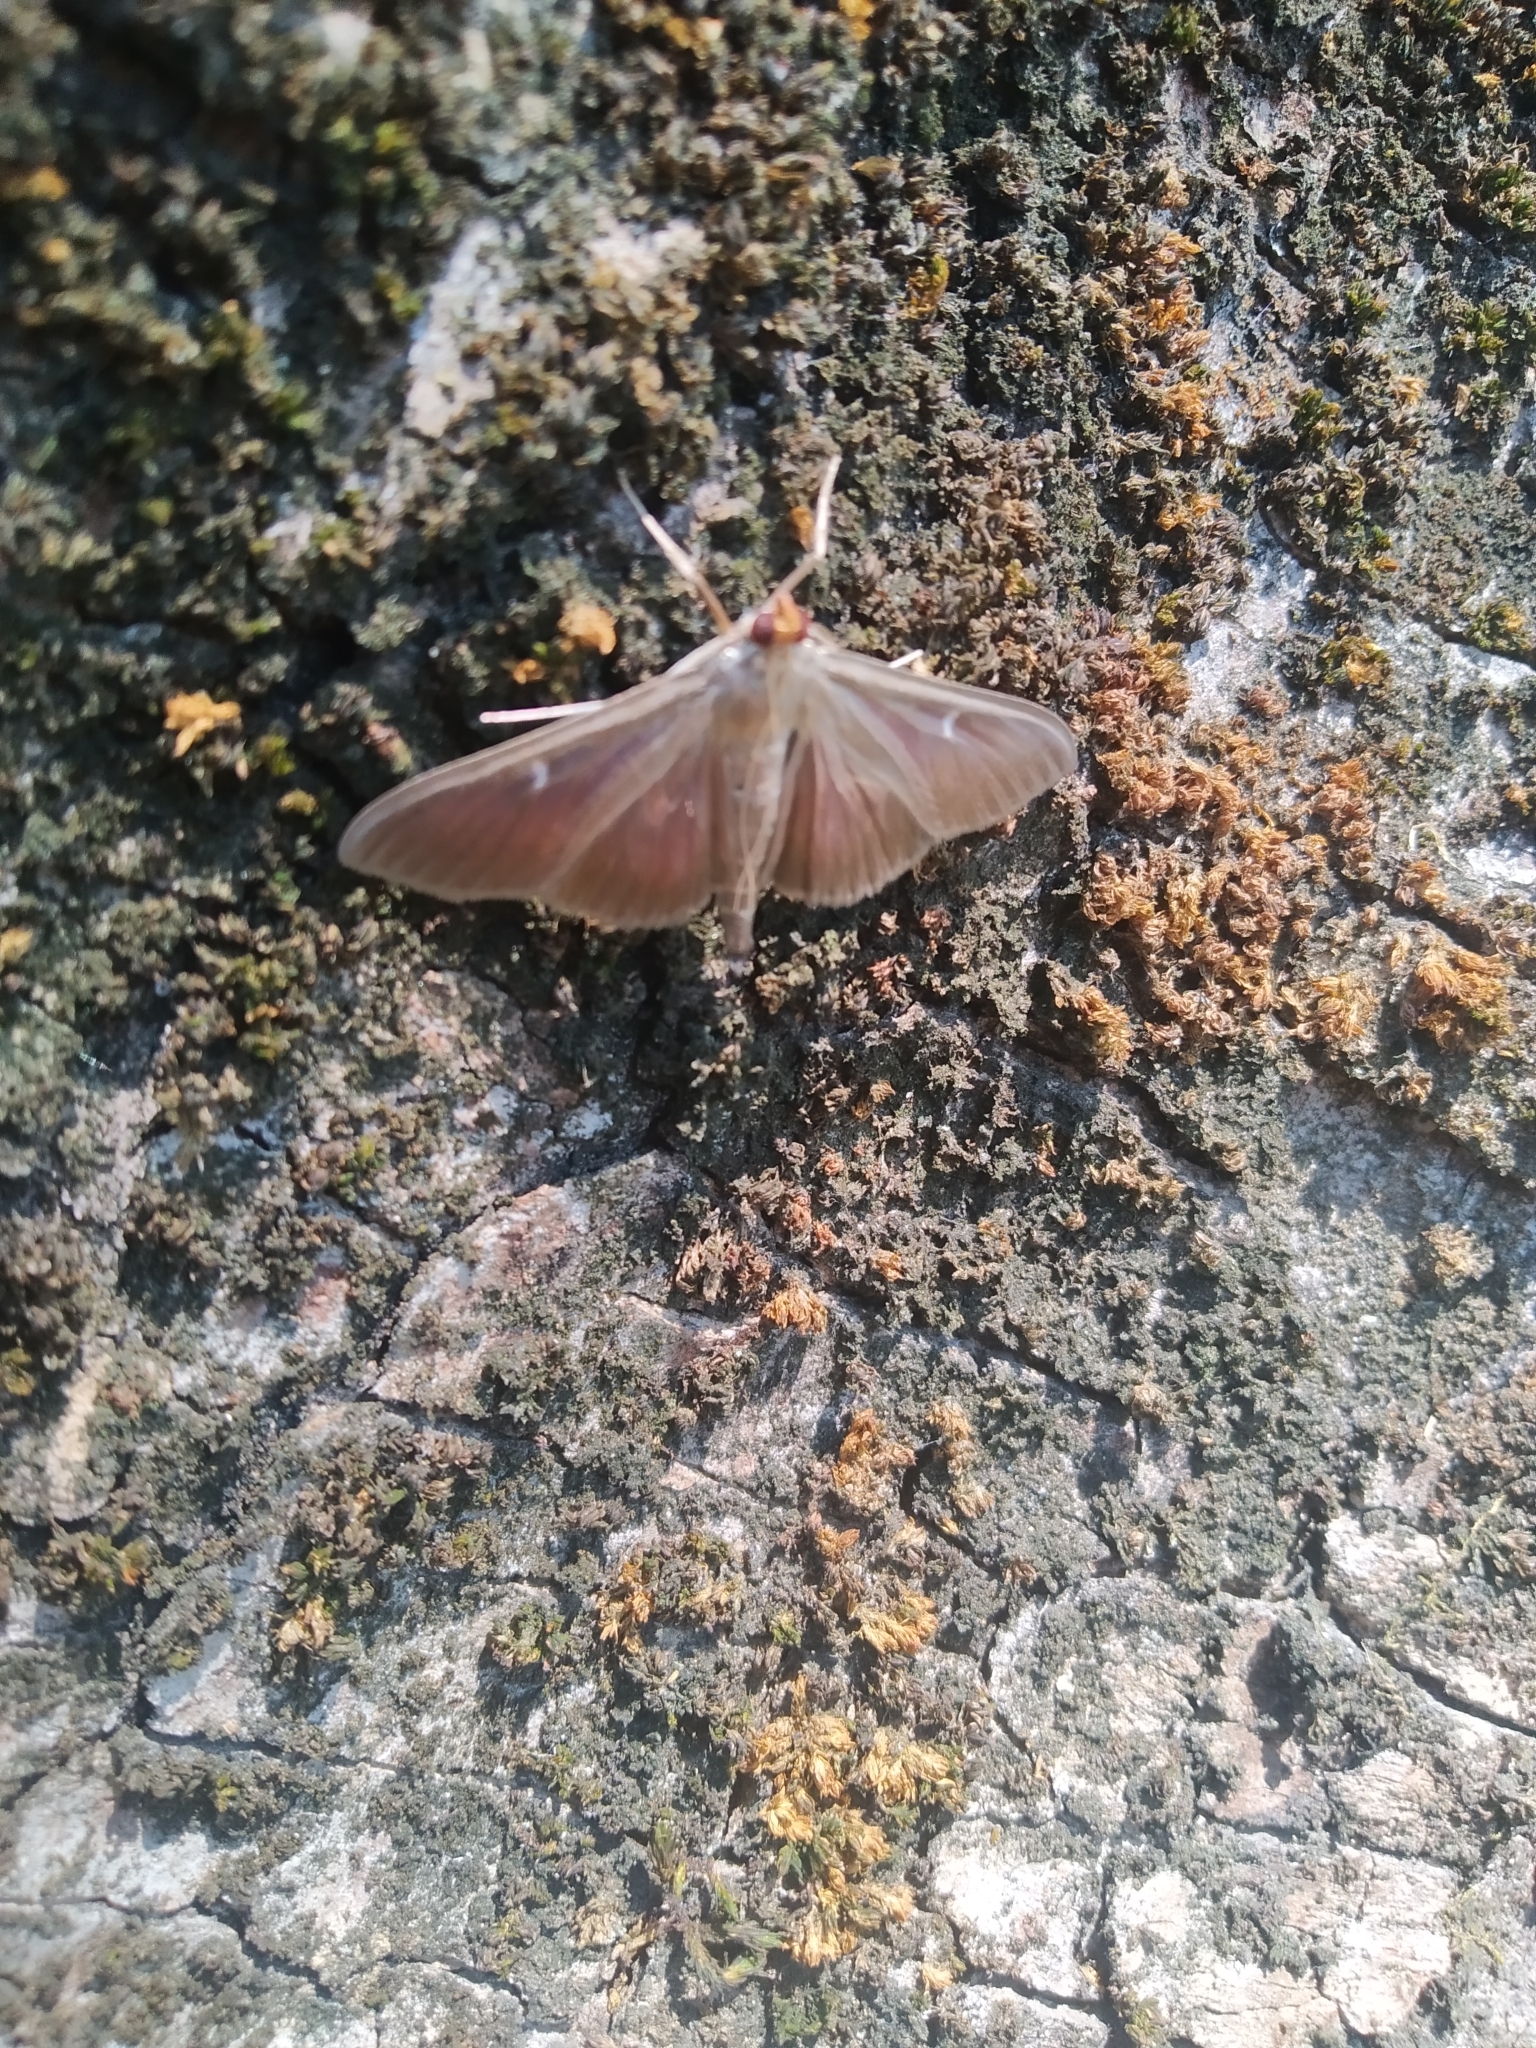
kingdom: Animalia
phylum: Arthropoda
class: Insecta
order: Lepidoptera
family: Crambidae
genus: Cydalima
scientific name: Cydalima perspectalis
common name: Box tree moth
